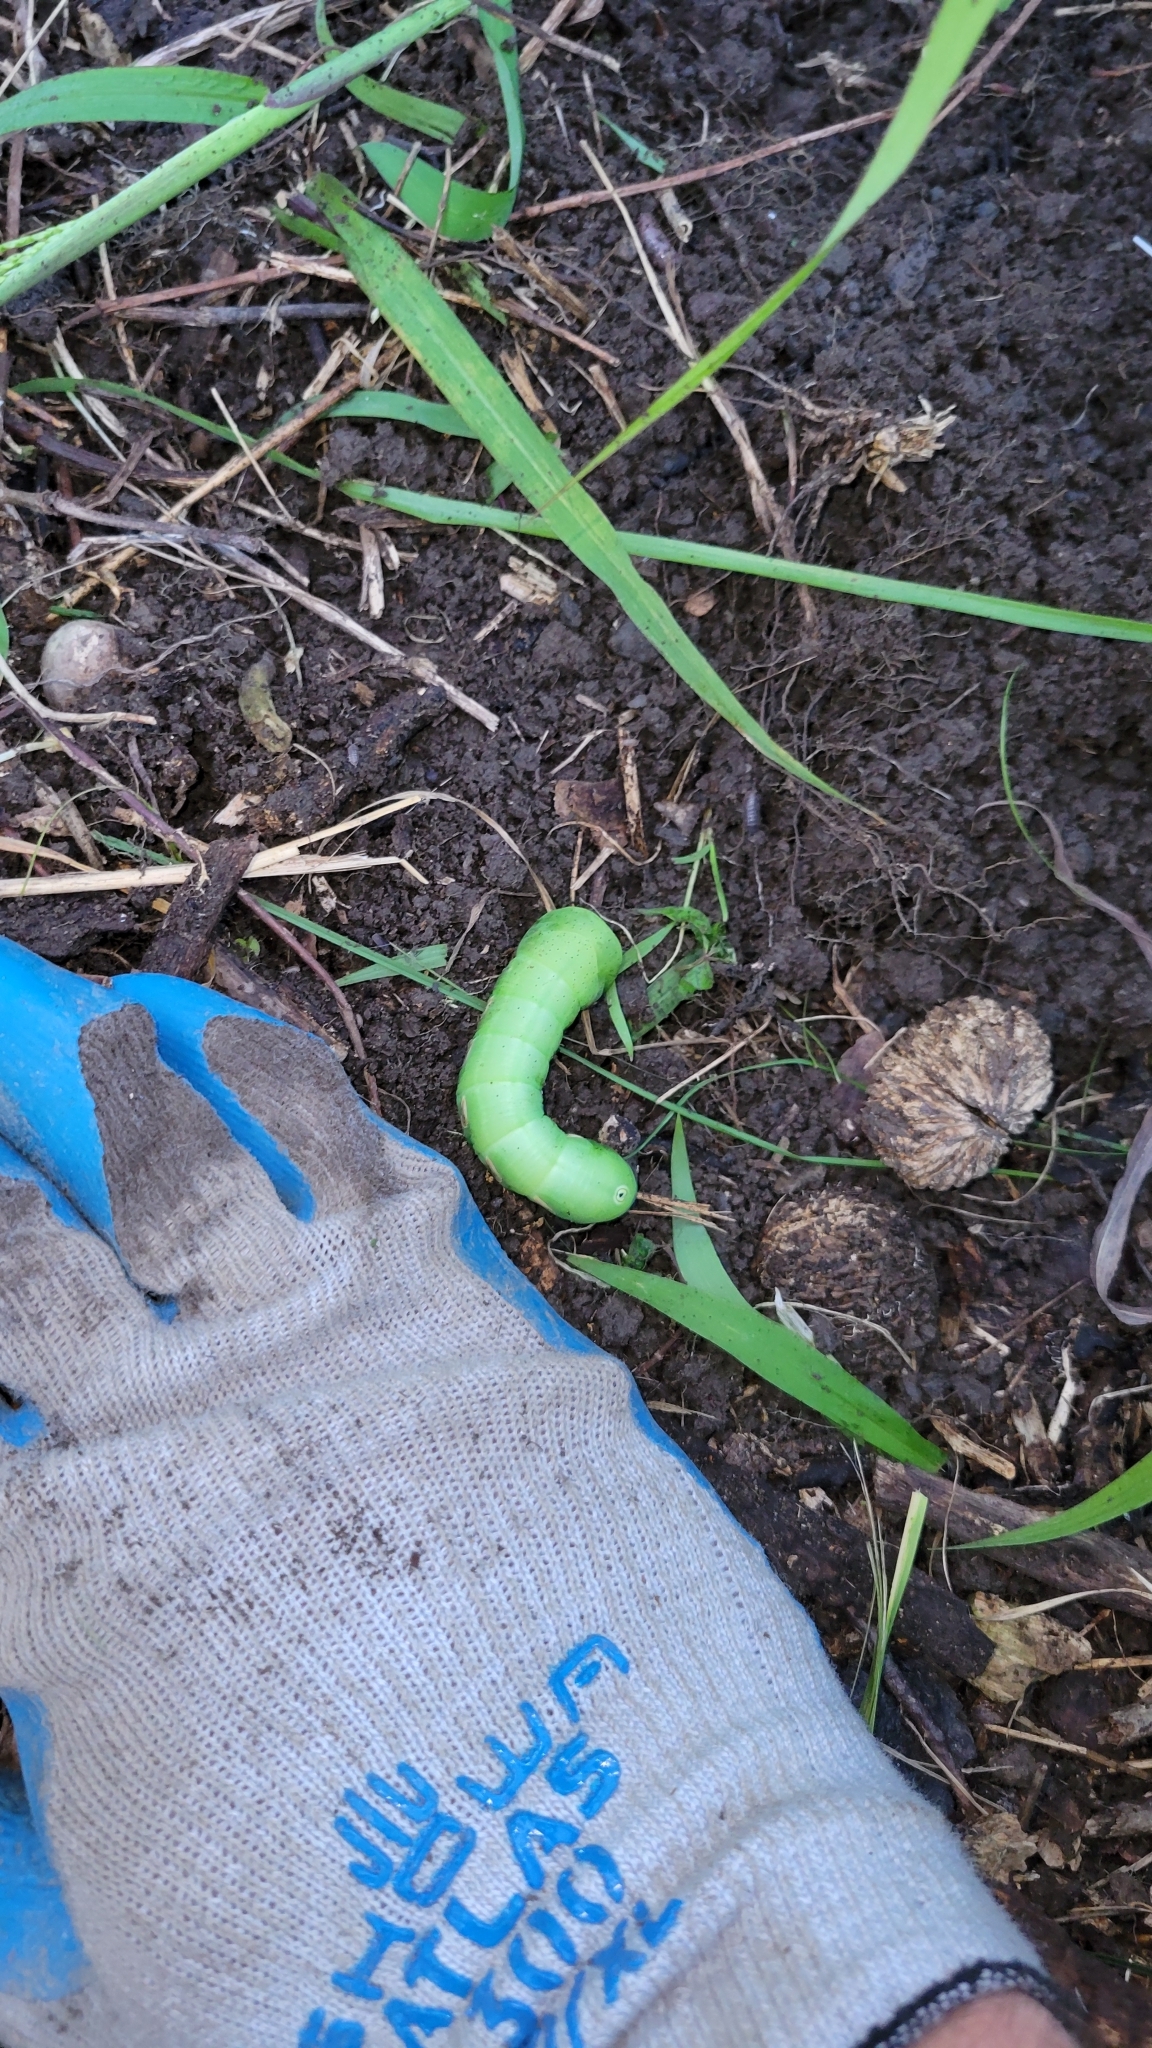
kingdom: Animalia
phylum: Arthropoda
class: Insecta
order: Lepidoptera
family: Sphingidae
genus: Eumorpha
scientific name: Eumorpha pandorus
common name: Pandora sphinx
